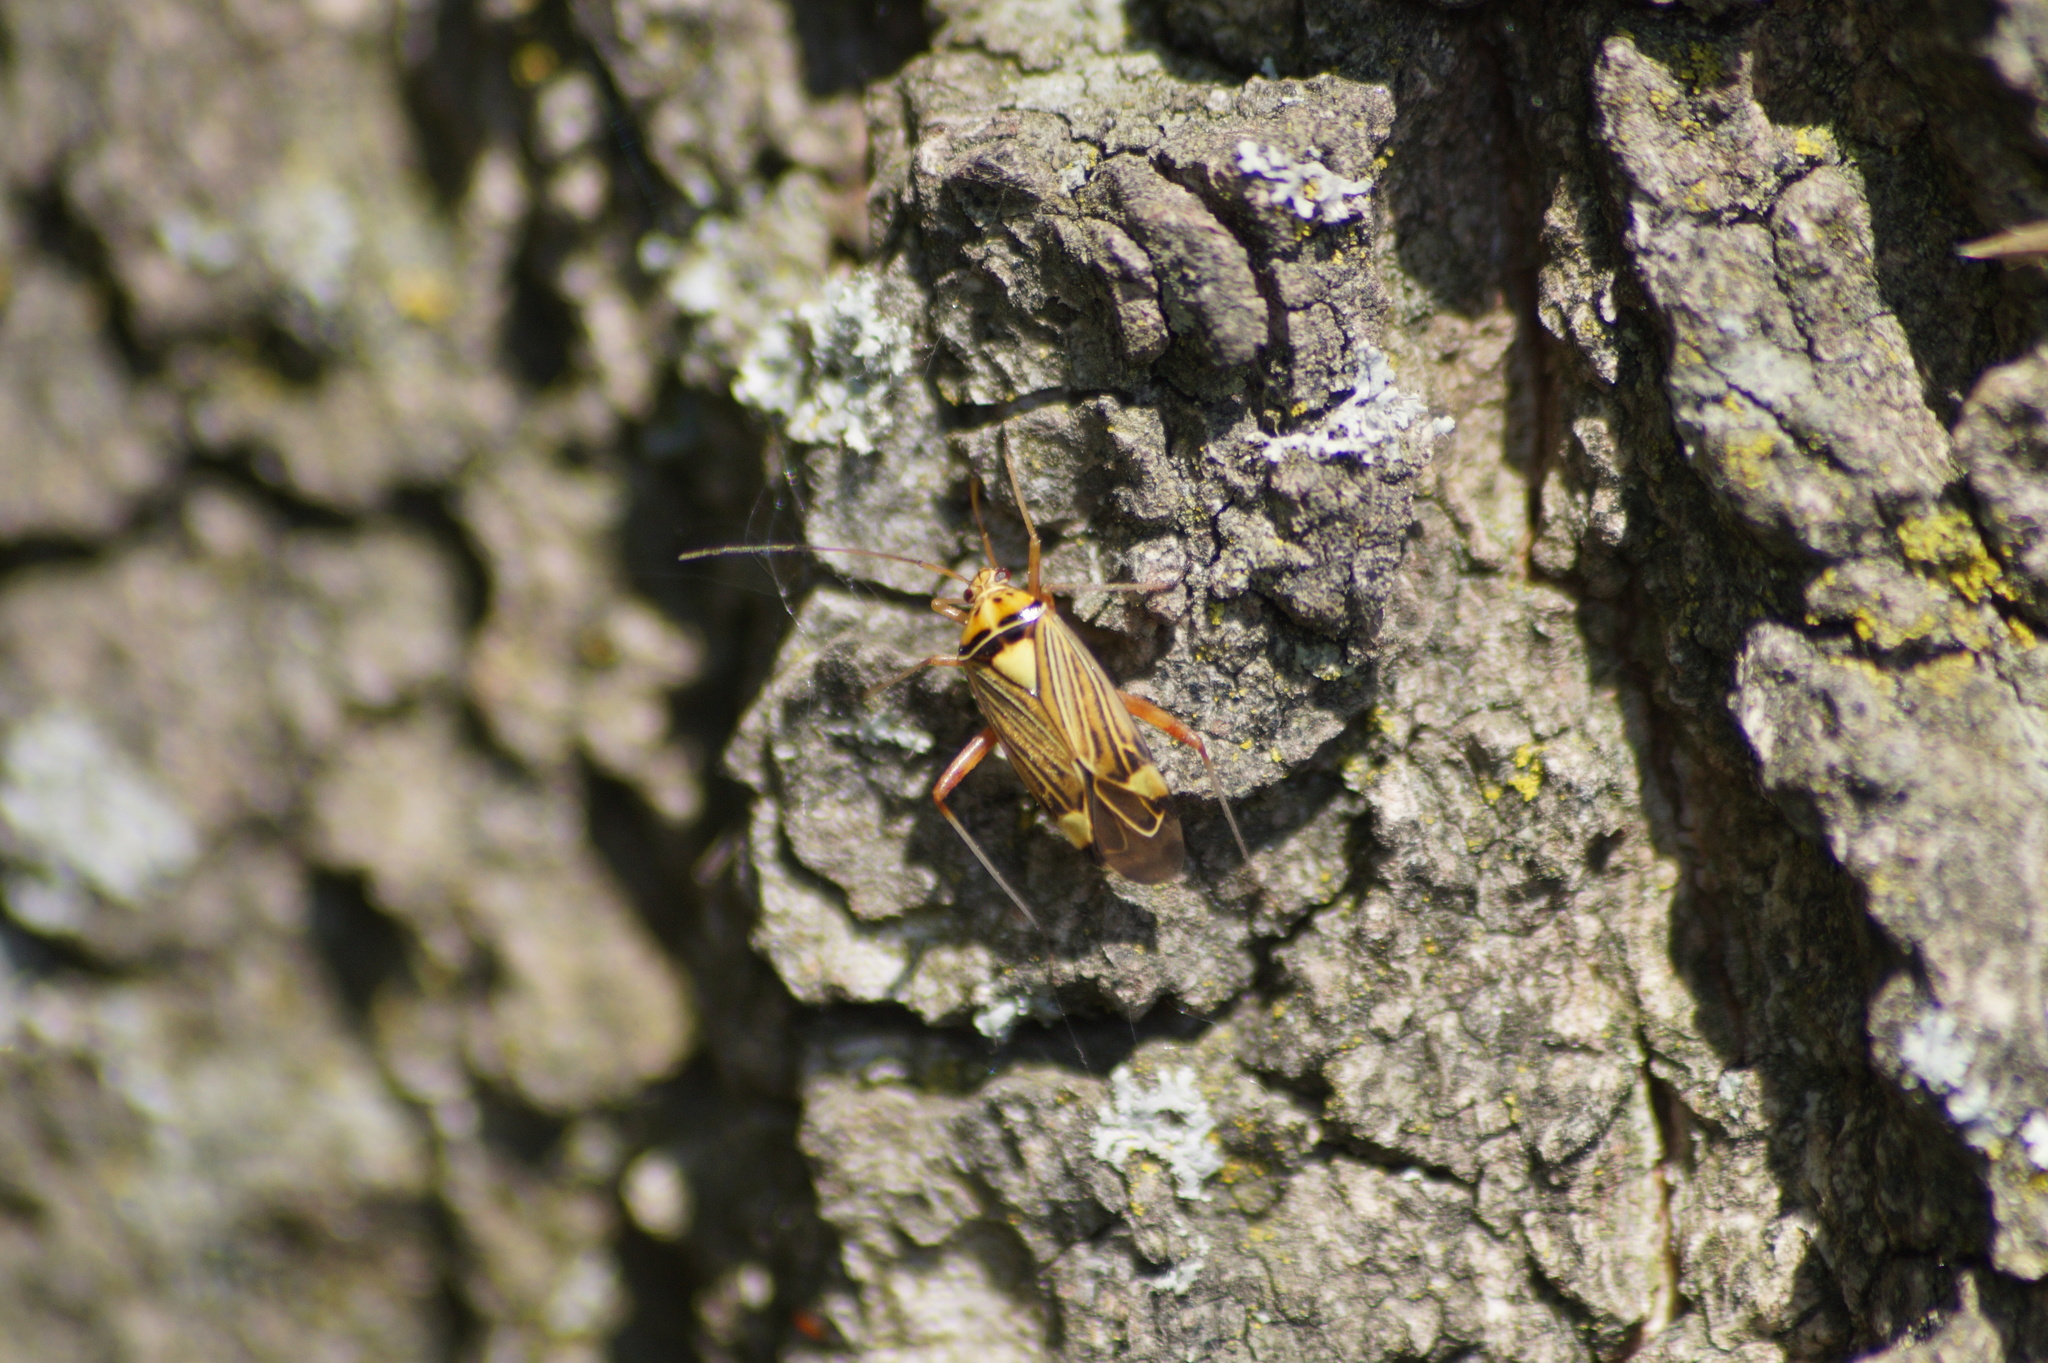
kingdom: Animalia
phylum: Arthropoda
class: Insecta
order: Hemiptera
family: Miridae
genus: Rhabdomiris
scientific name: Rhabdomiris striatellus
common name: Plant bug
